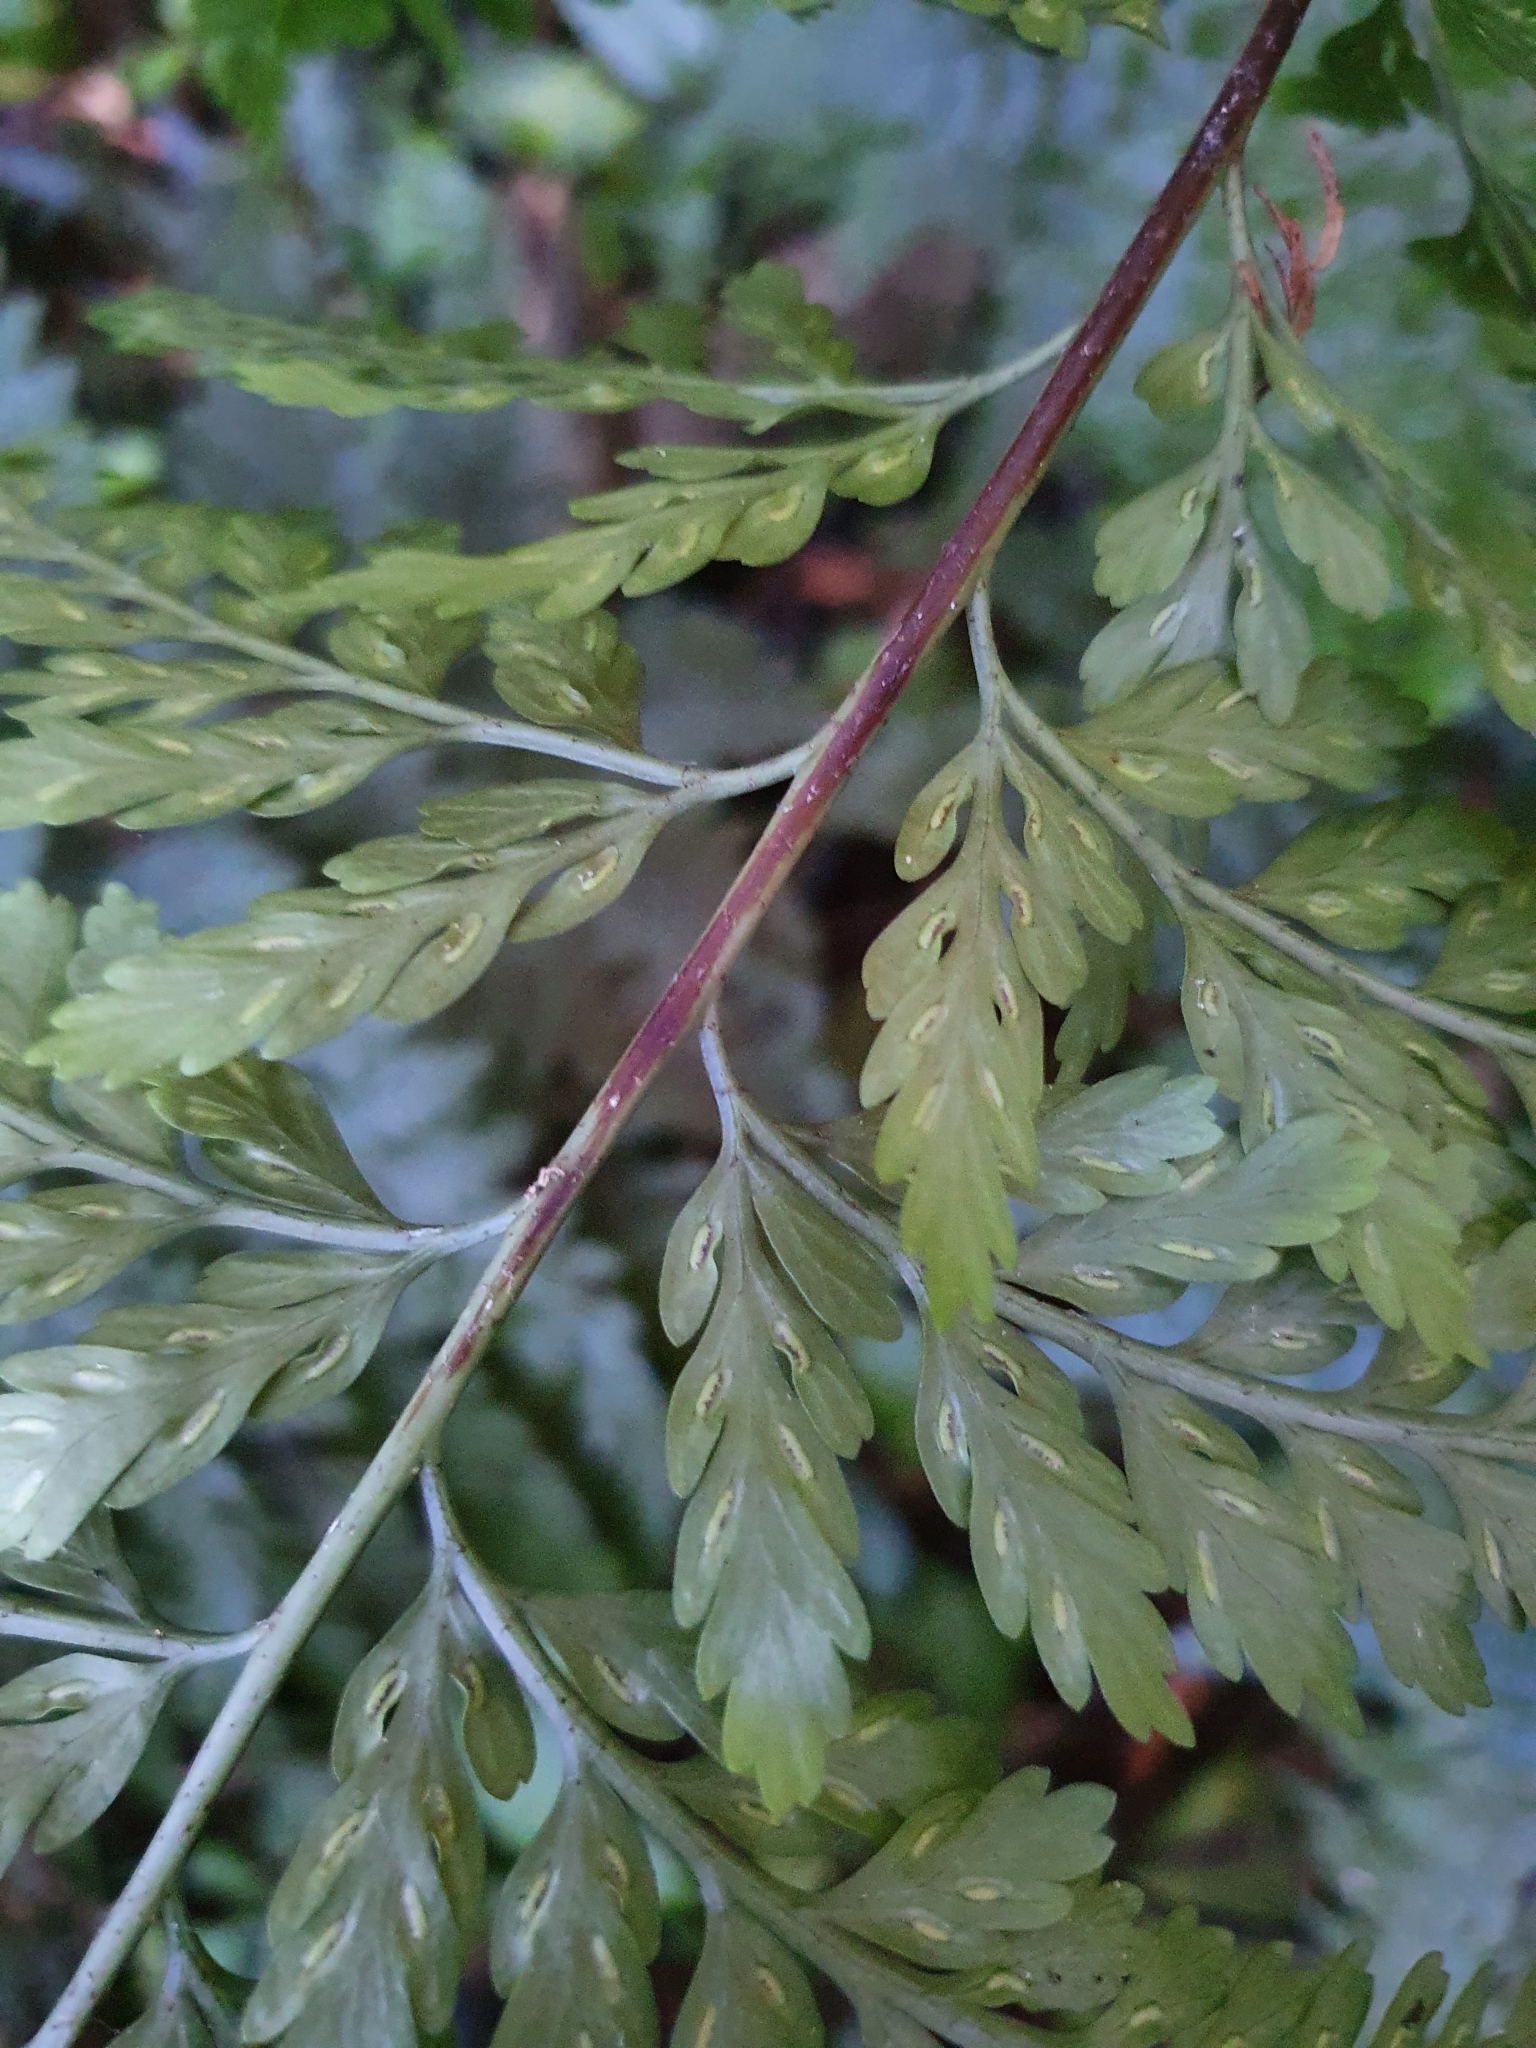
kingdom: Plantae
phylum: Tracheophyta
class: Polypodiopsida
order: Polypodiales
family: Aspleniaceae
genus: Asplenium
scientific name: Asplenium
